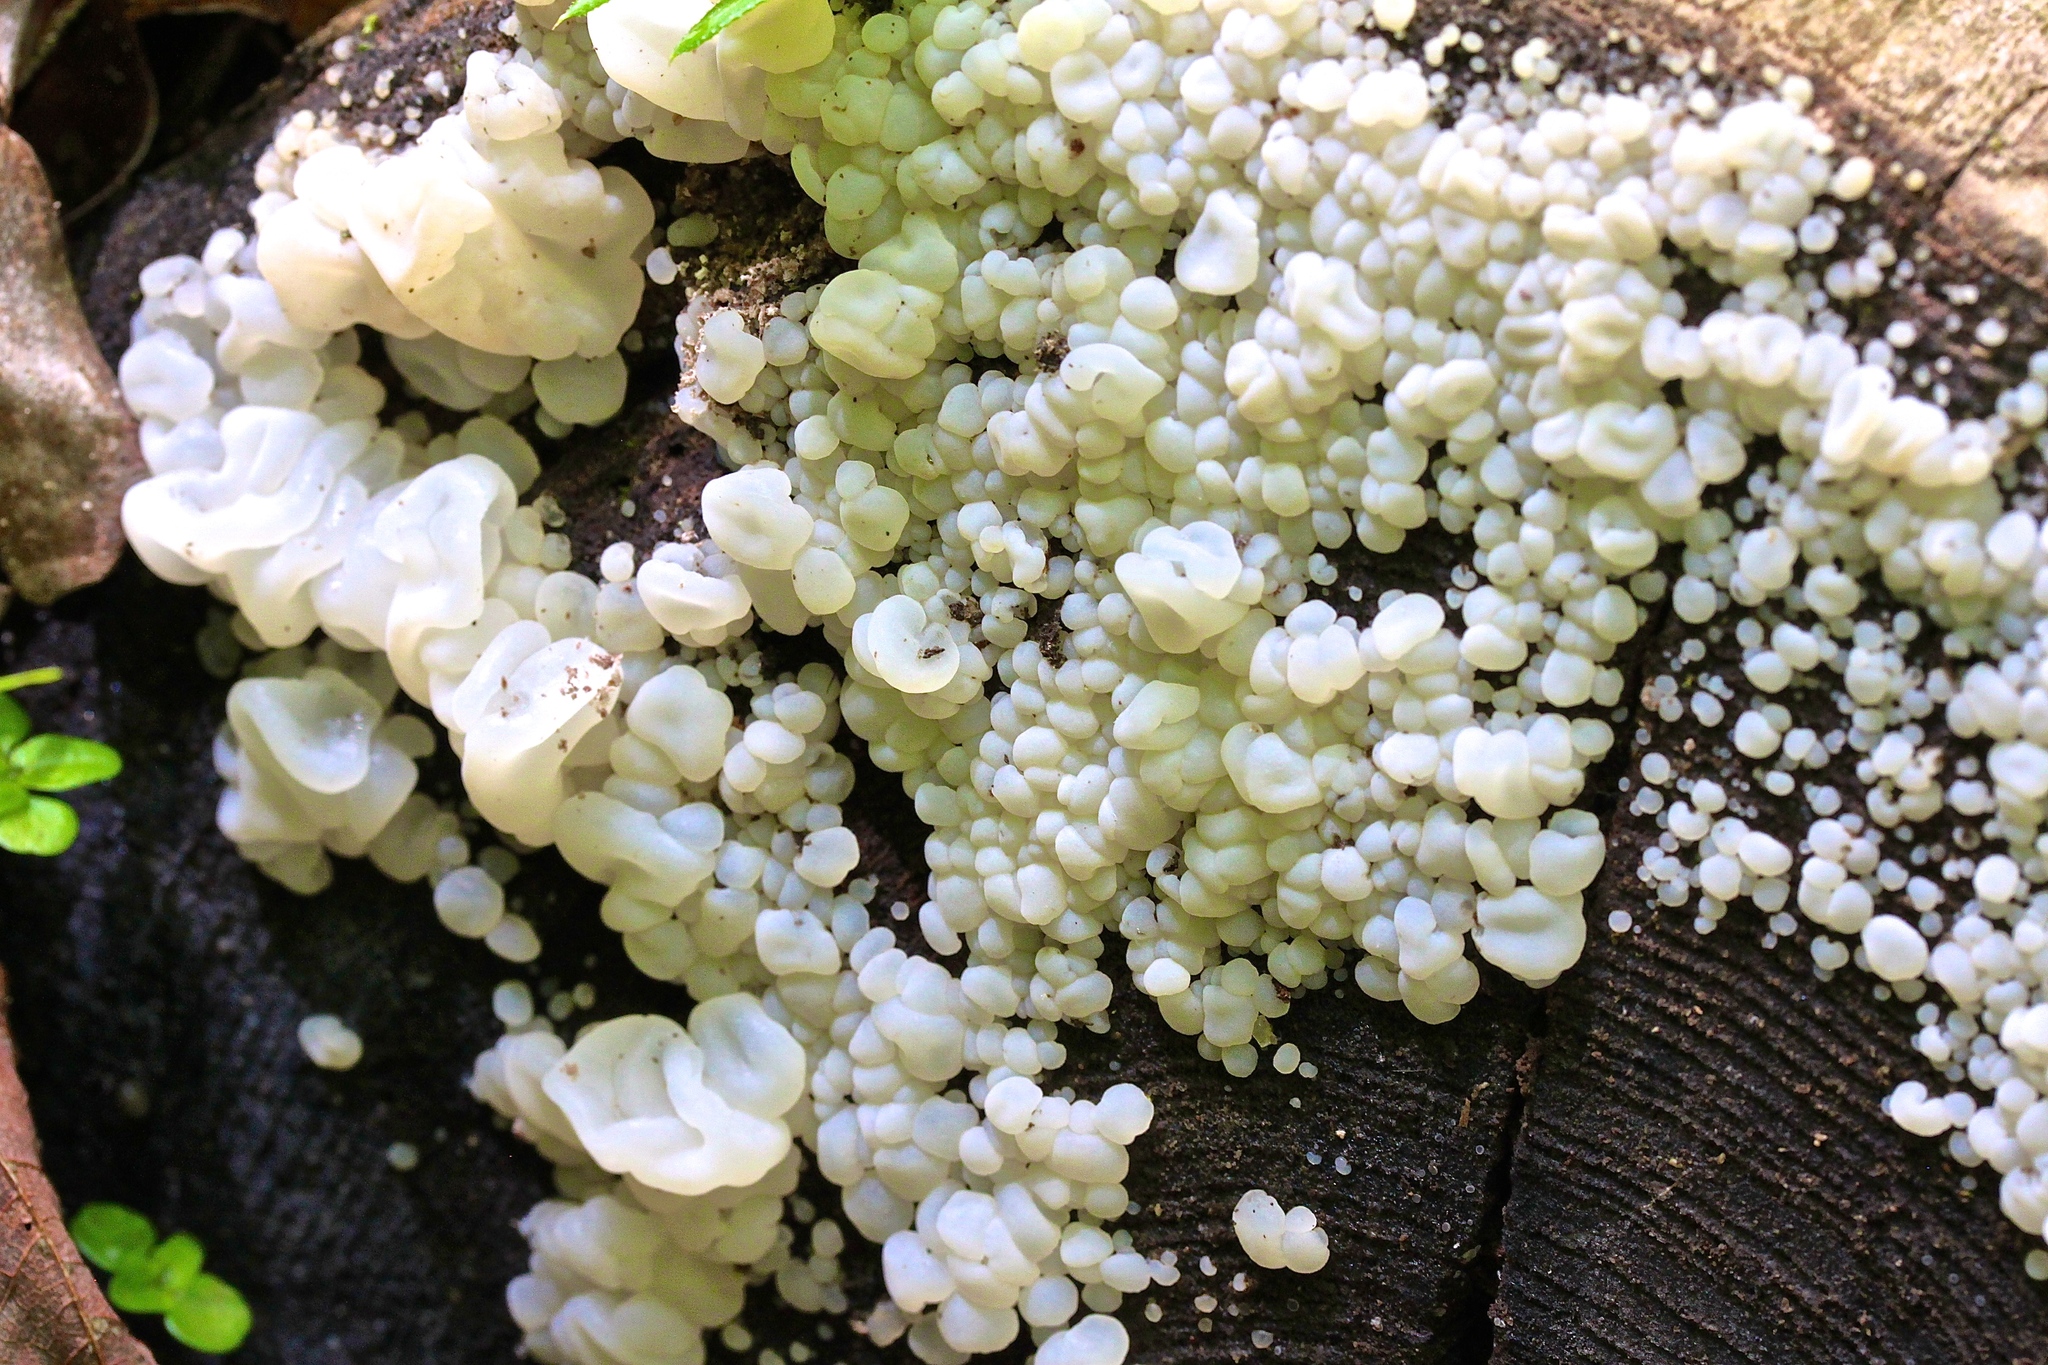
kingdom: Fungi
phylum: Basidiomycota
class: Agaricomycetes
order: Auriculariales
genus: Ductifera
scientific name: Ductifera pululahuana
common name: White jelly fungus
